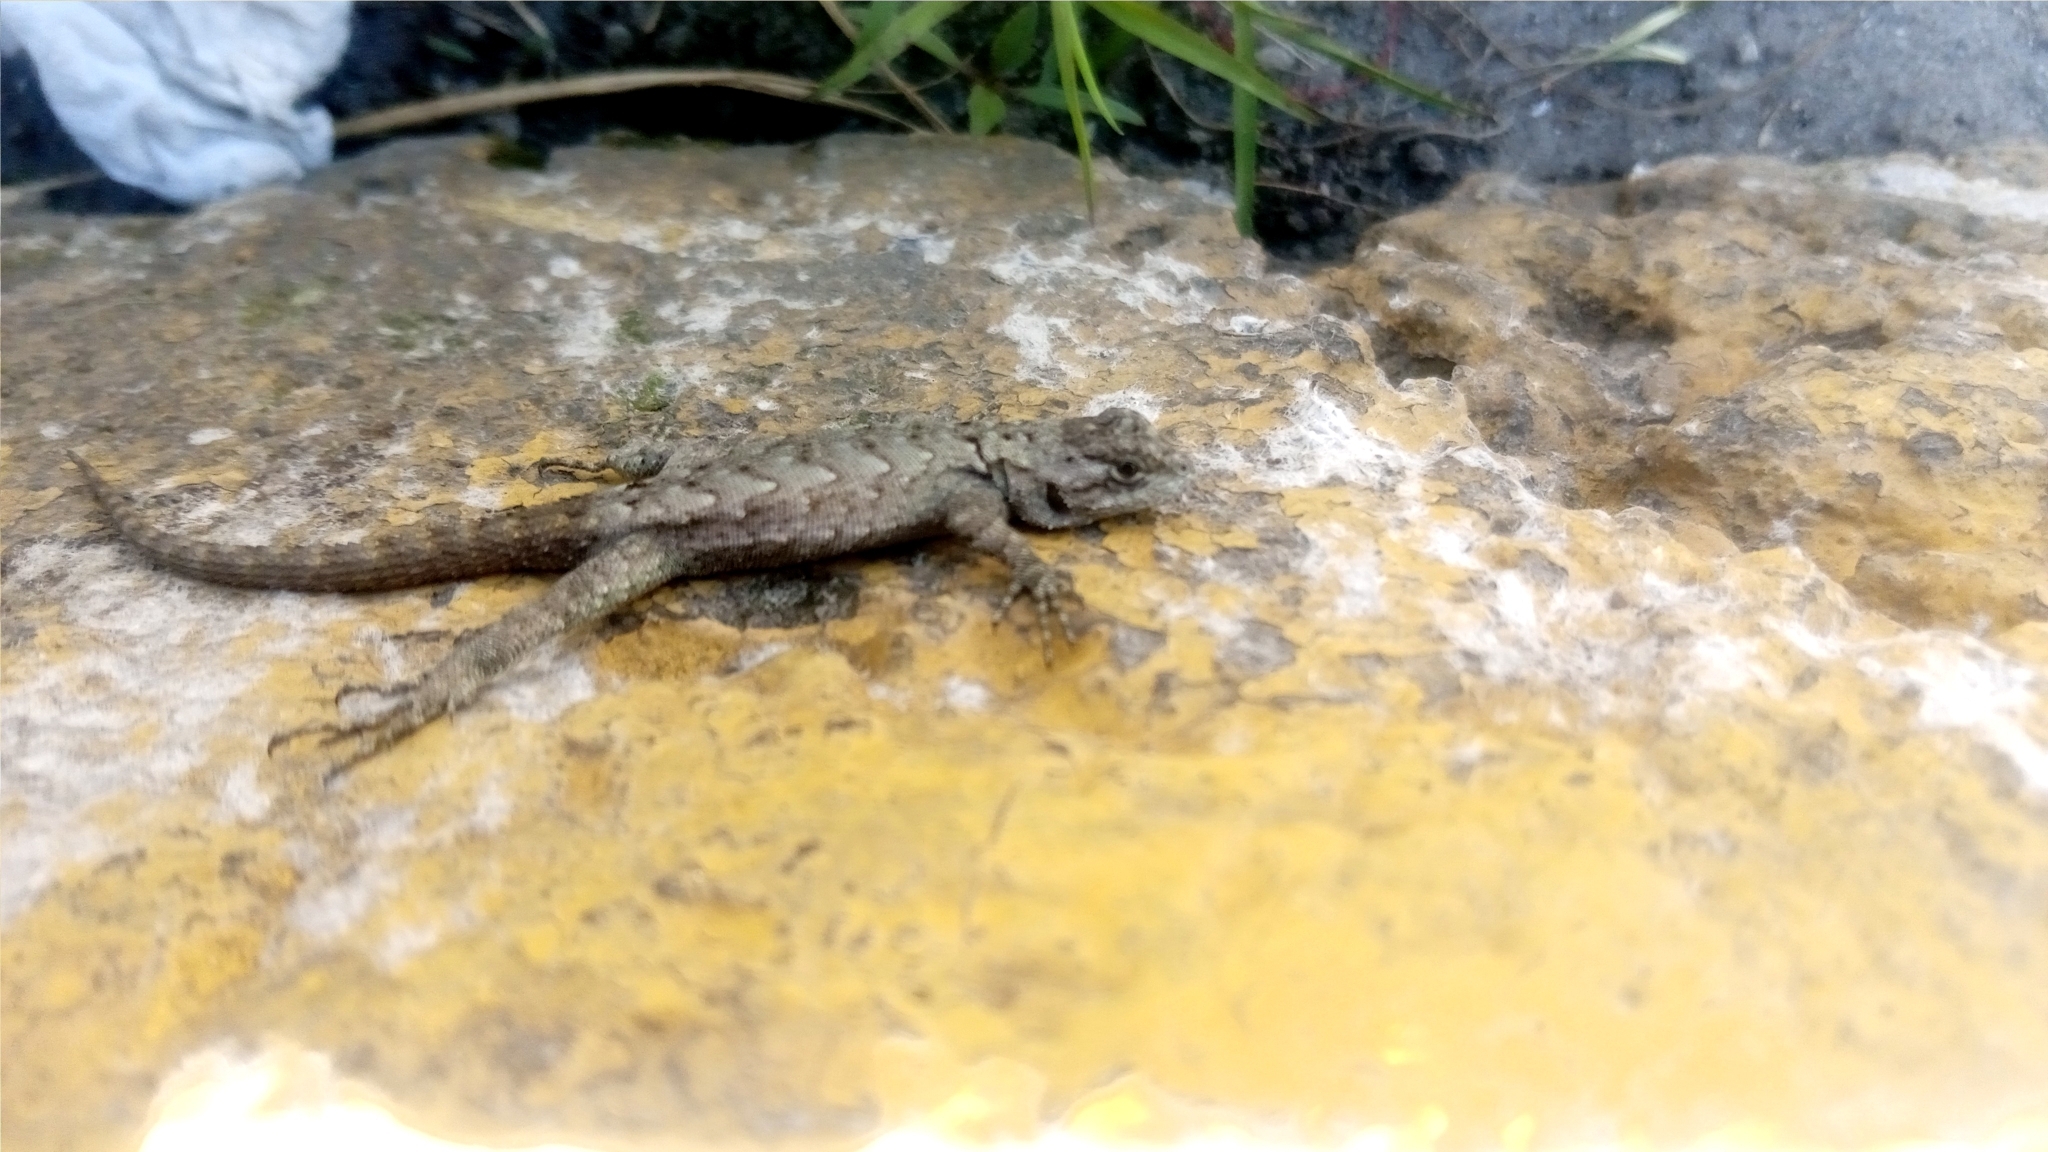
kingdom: Animalia
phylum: Chordata
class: Squamata
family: Phrynosomatidae
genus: Sceloporus
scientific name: Sceloporus grammicus
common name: Mesquite lizard
